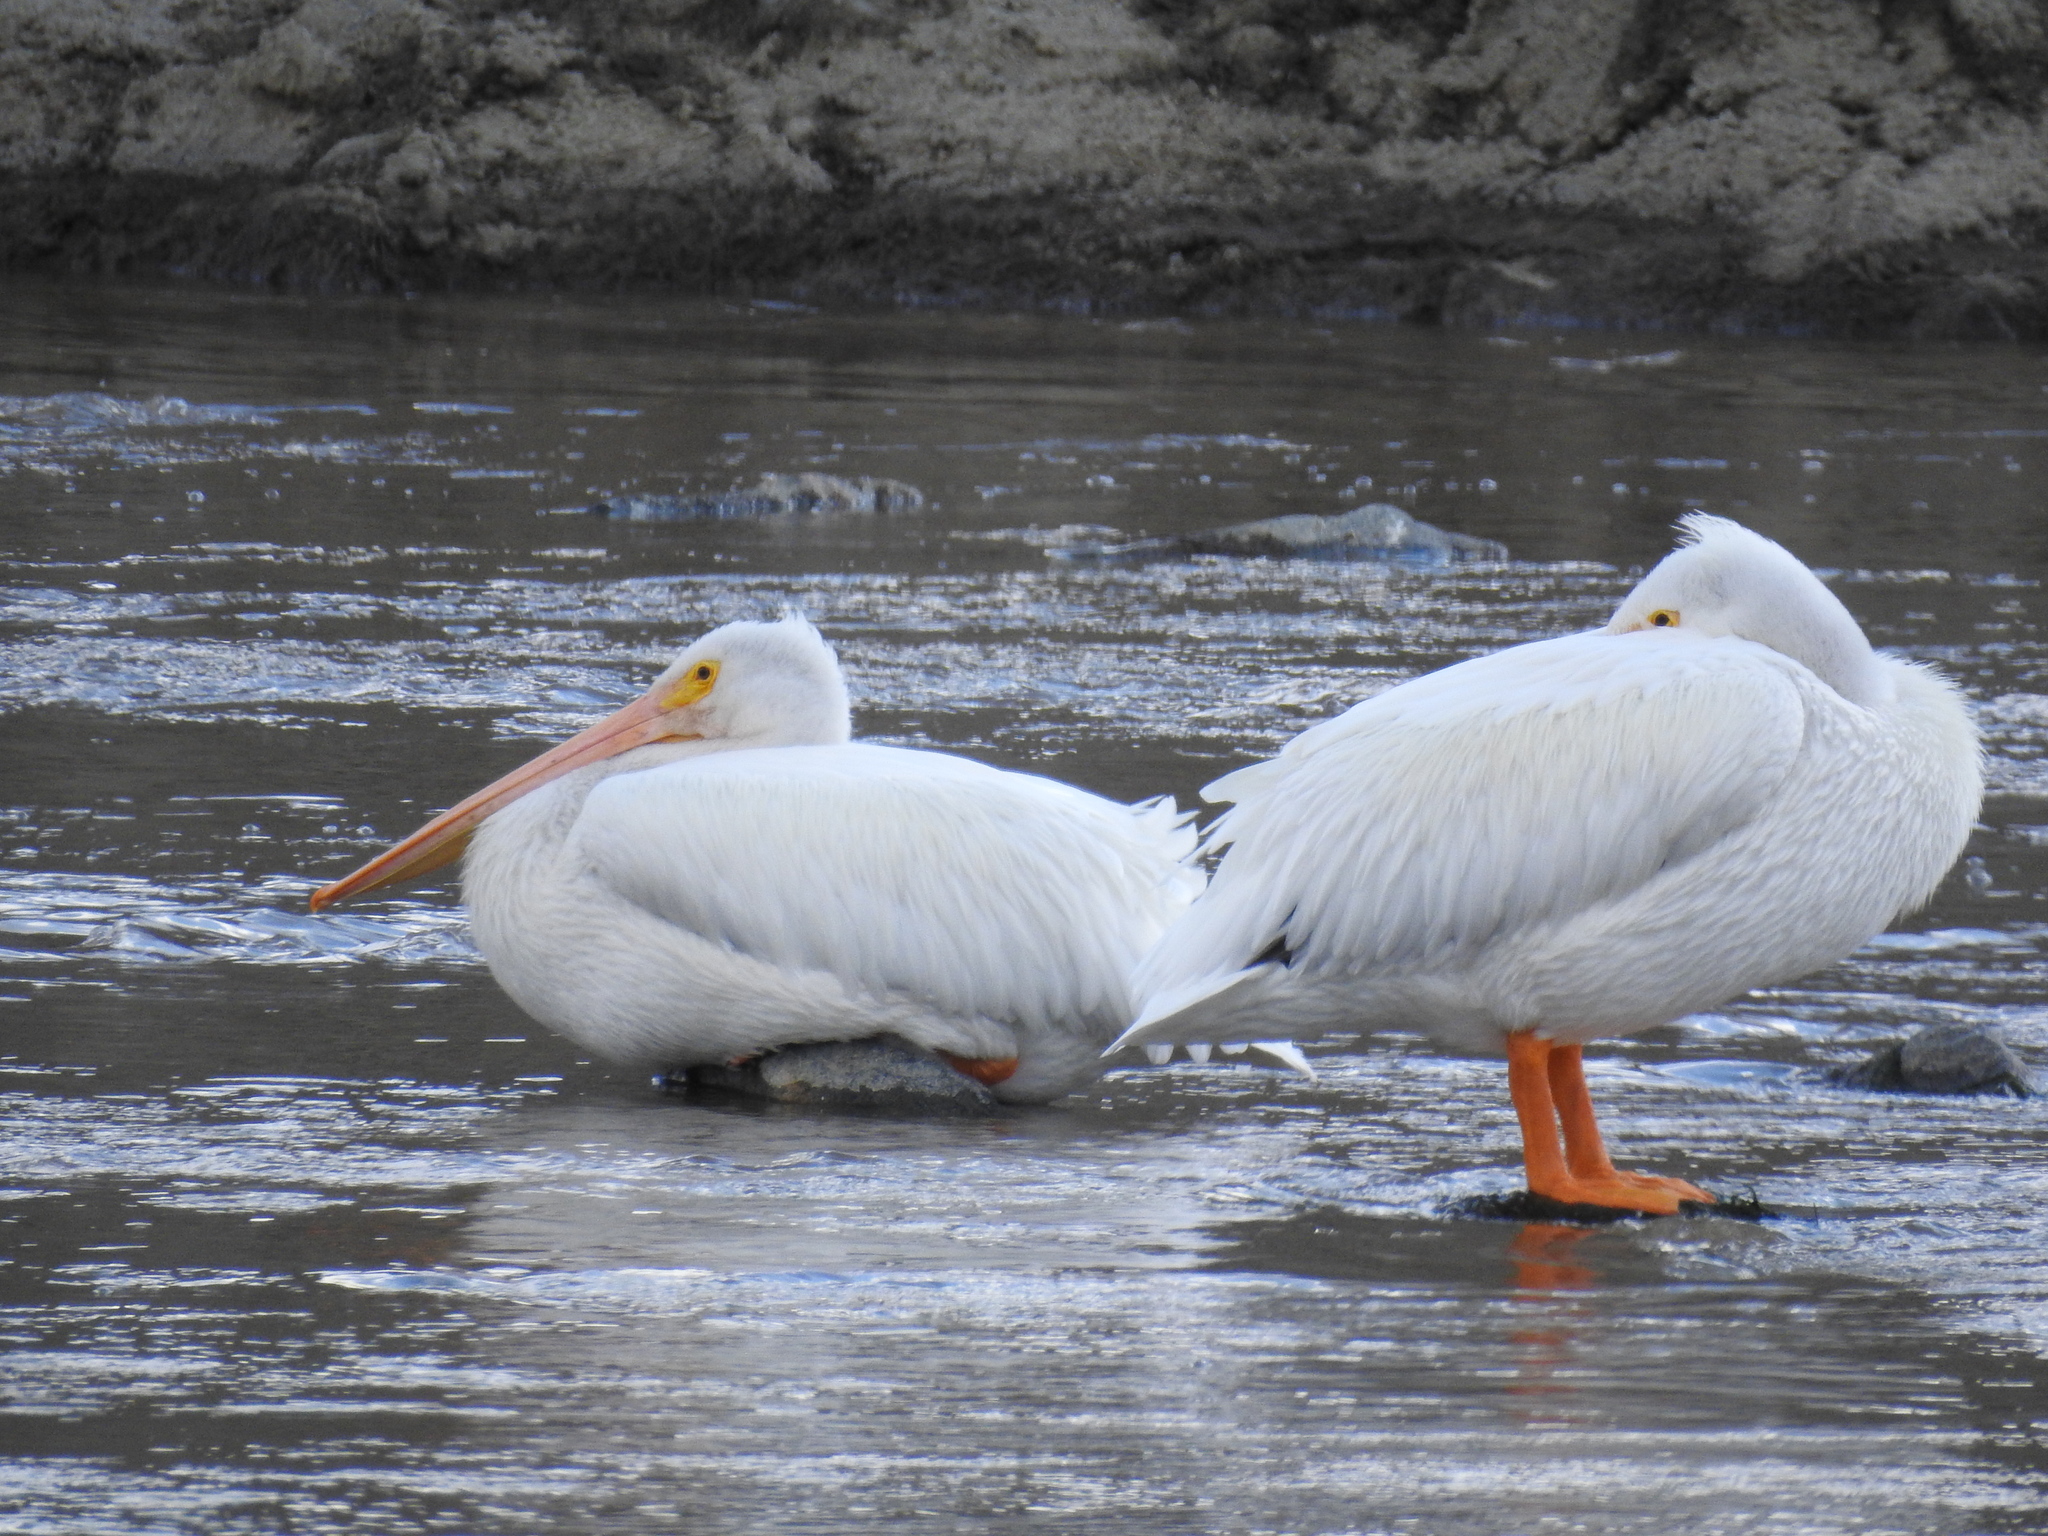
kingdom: Animalia
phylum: Chordata
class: Aves
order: Pelecaniformes
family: Pelecanidae
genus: Pelecanus
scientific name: Pelecanus erythrorhynchos
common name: American white pelican
